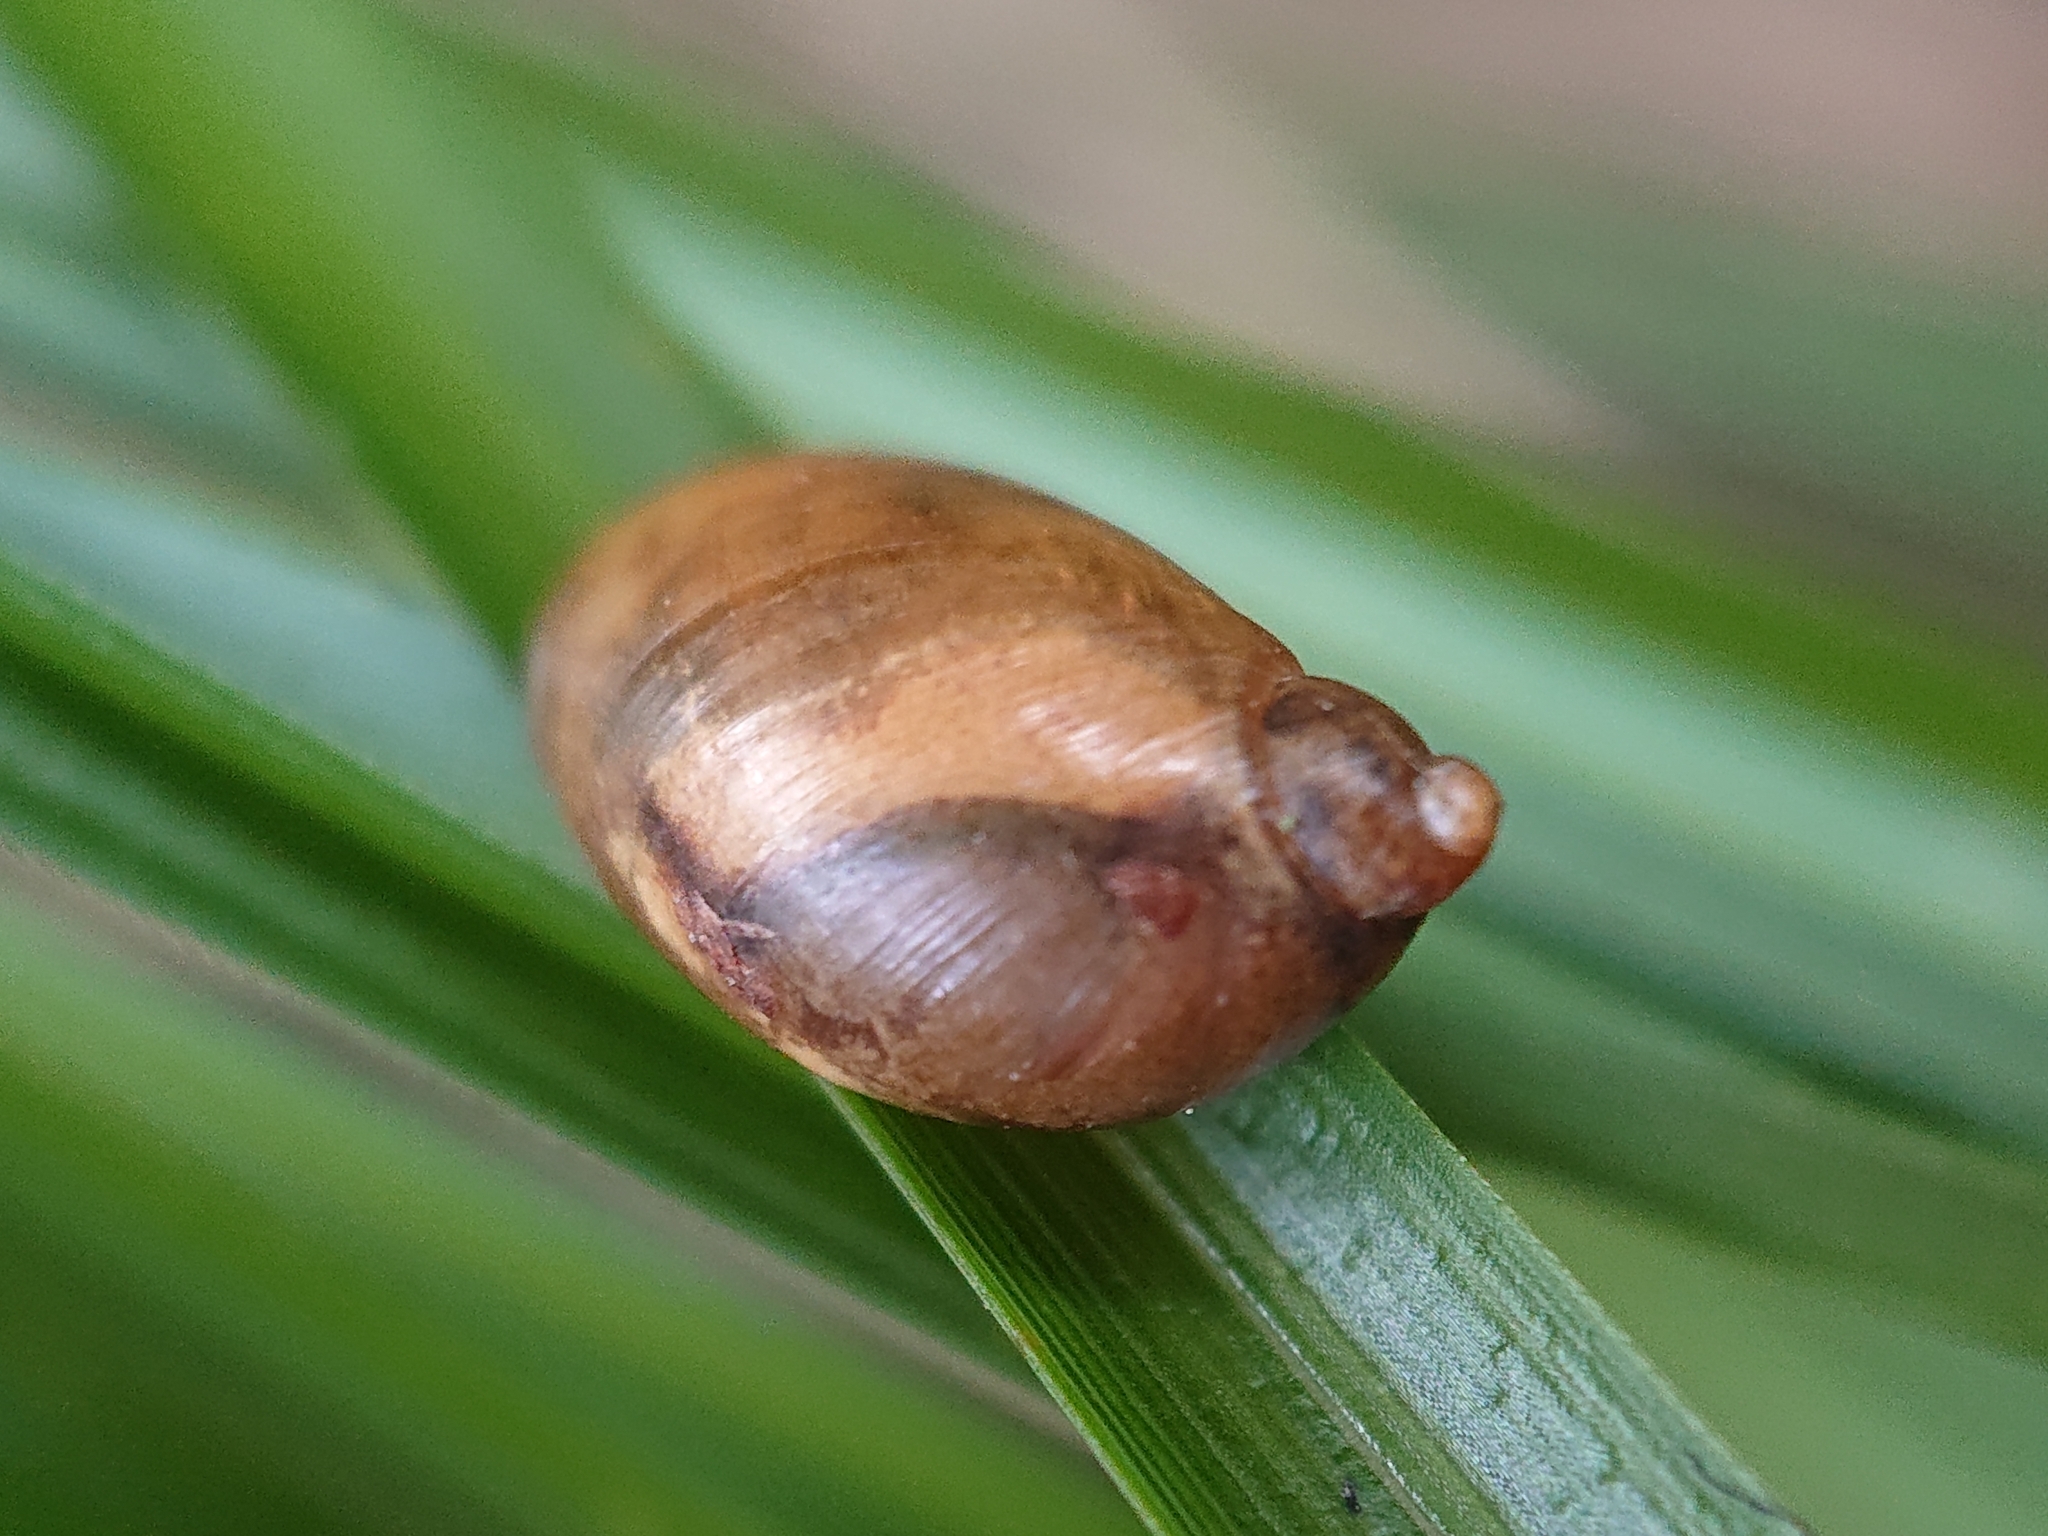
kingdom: Animalia
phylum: Mollusca
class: Gastropoda
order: Stylommatophora
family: Succineidae
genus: Succinea
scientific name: Succinea putris
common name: European ambersnail
